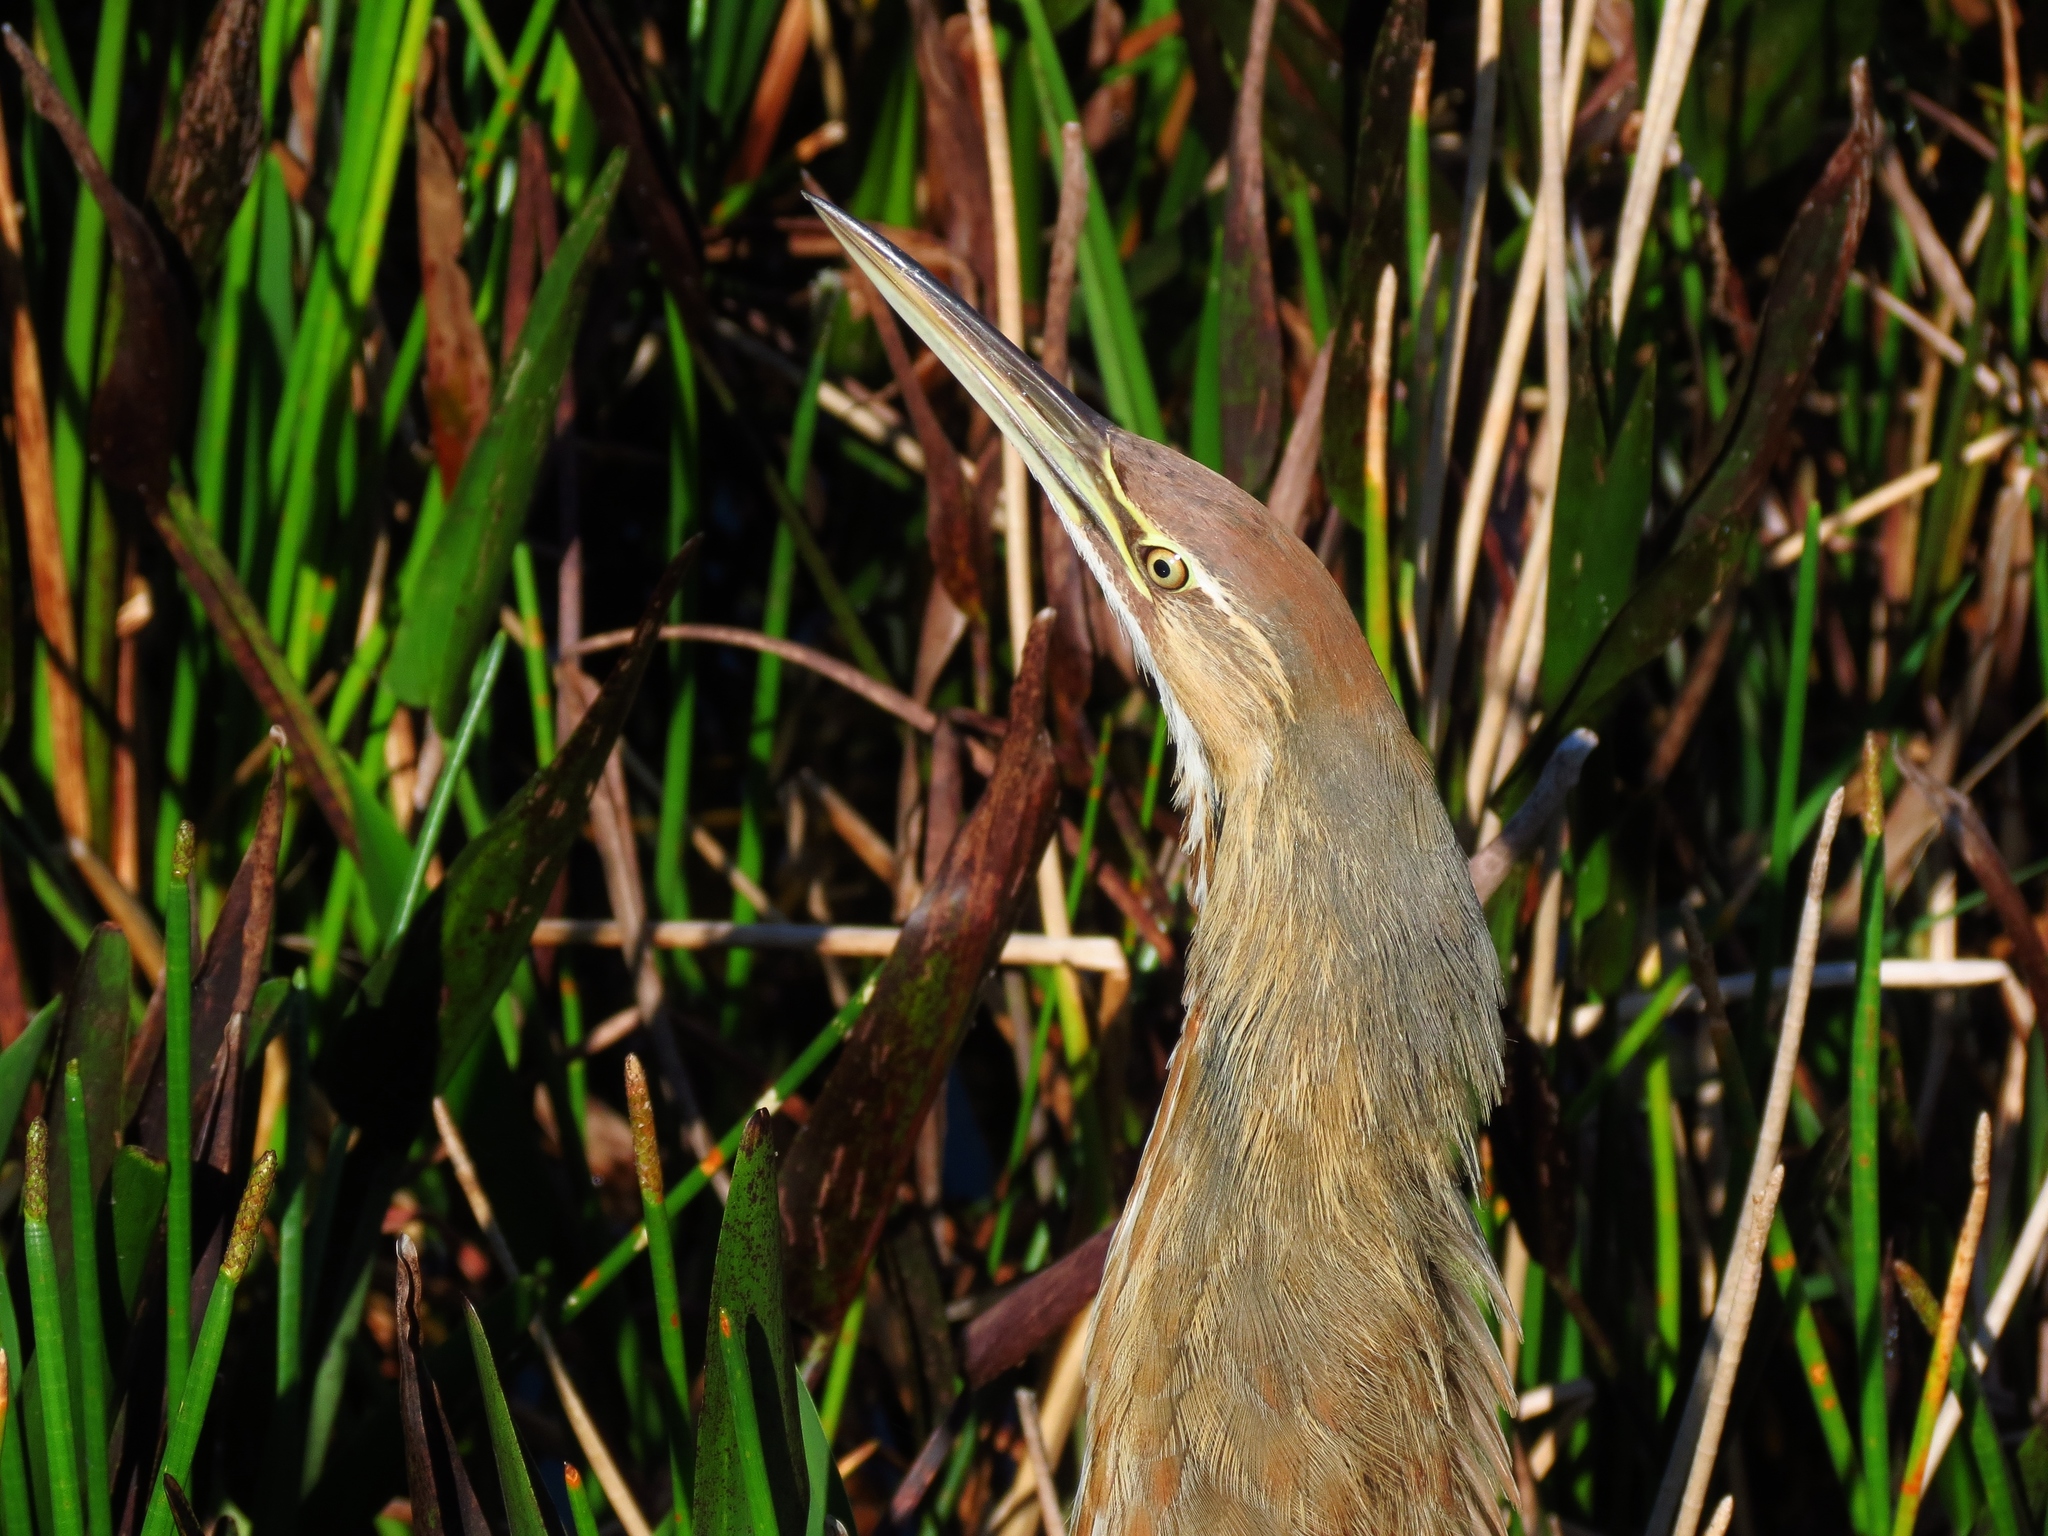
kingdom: Animalia
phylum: Chordata
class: Aves
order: Pelecaniformes
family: Ardeidae
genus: Botaurus
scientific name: Botaurus lentiginosus
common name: American bittern
